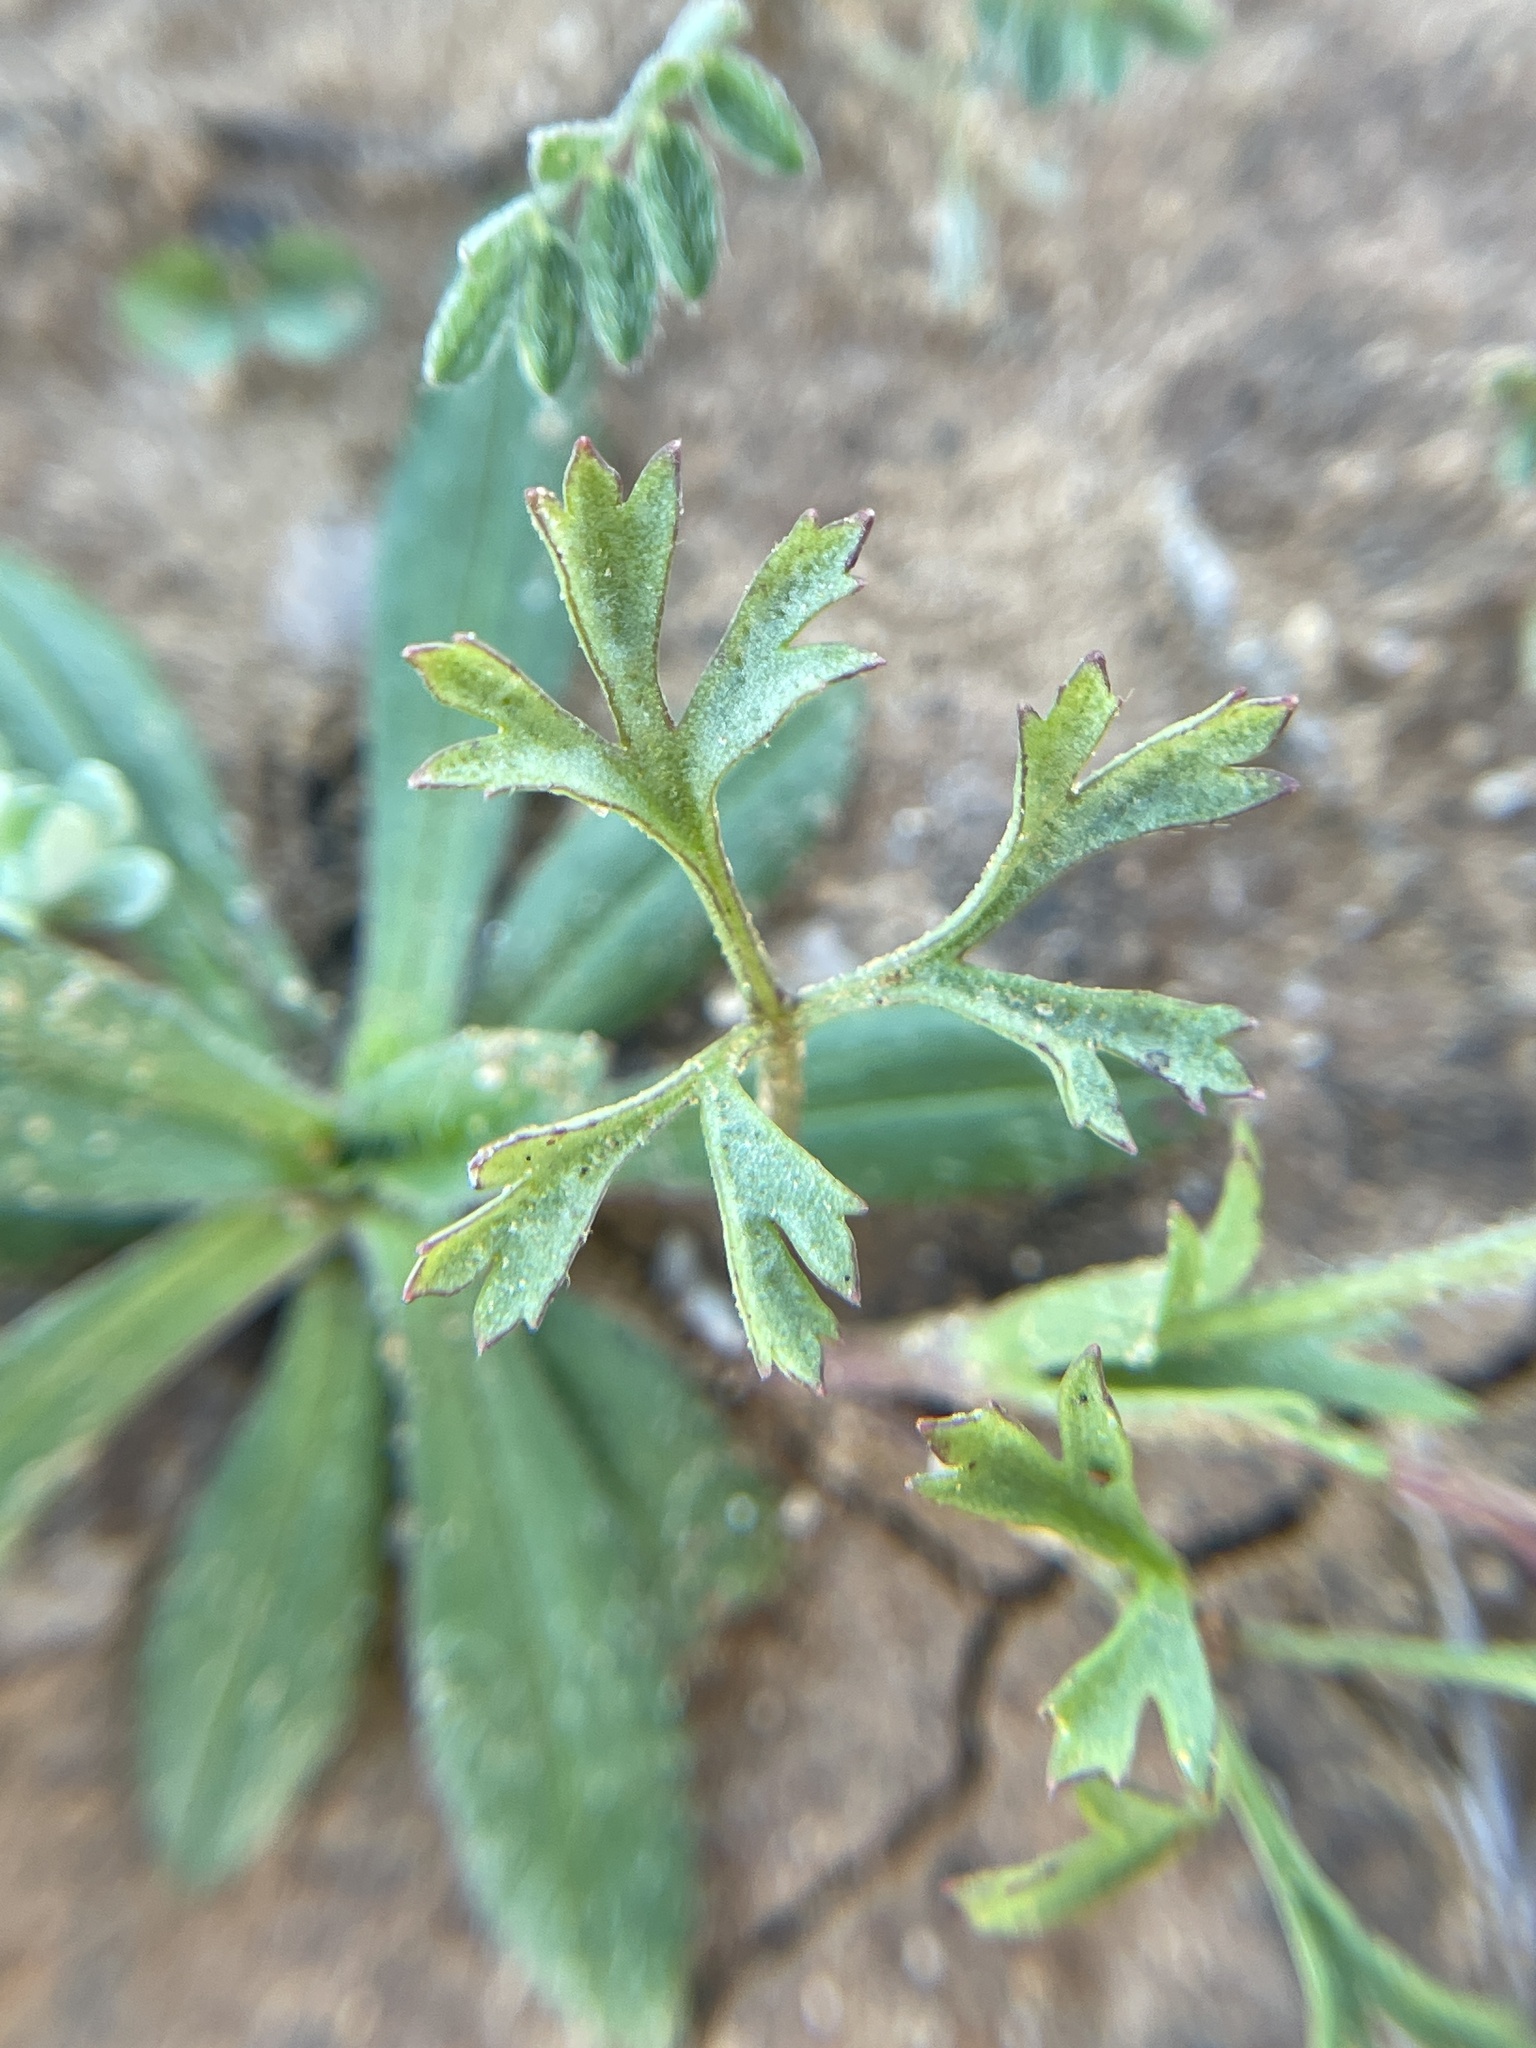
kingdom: Plantae
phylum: Tracheophyta
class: Magnoliopsida
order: Ranunculales
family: Ranunculaceae
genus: Anemone
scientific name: Anemone caroliniana
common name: Carolina anemone
